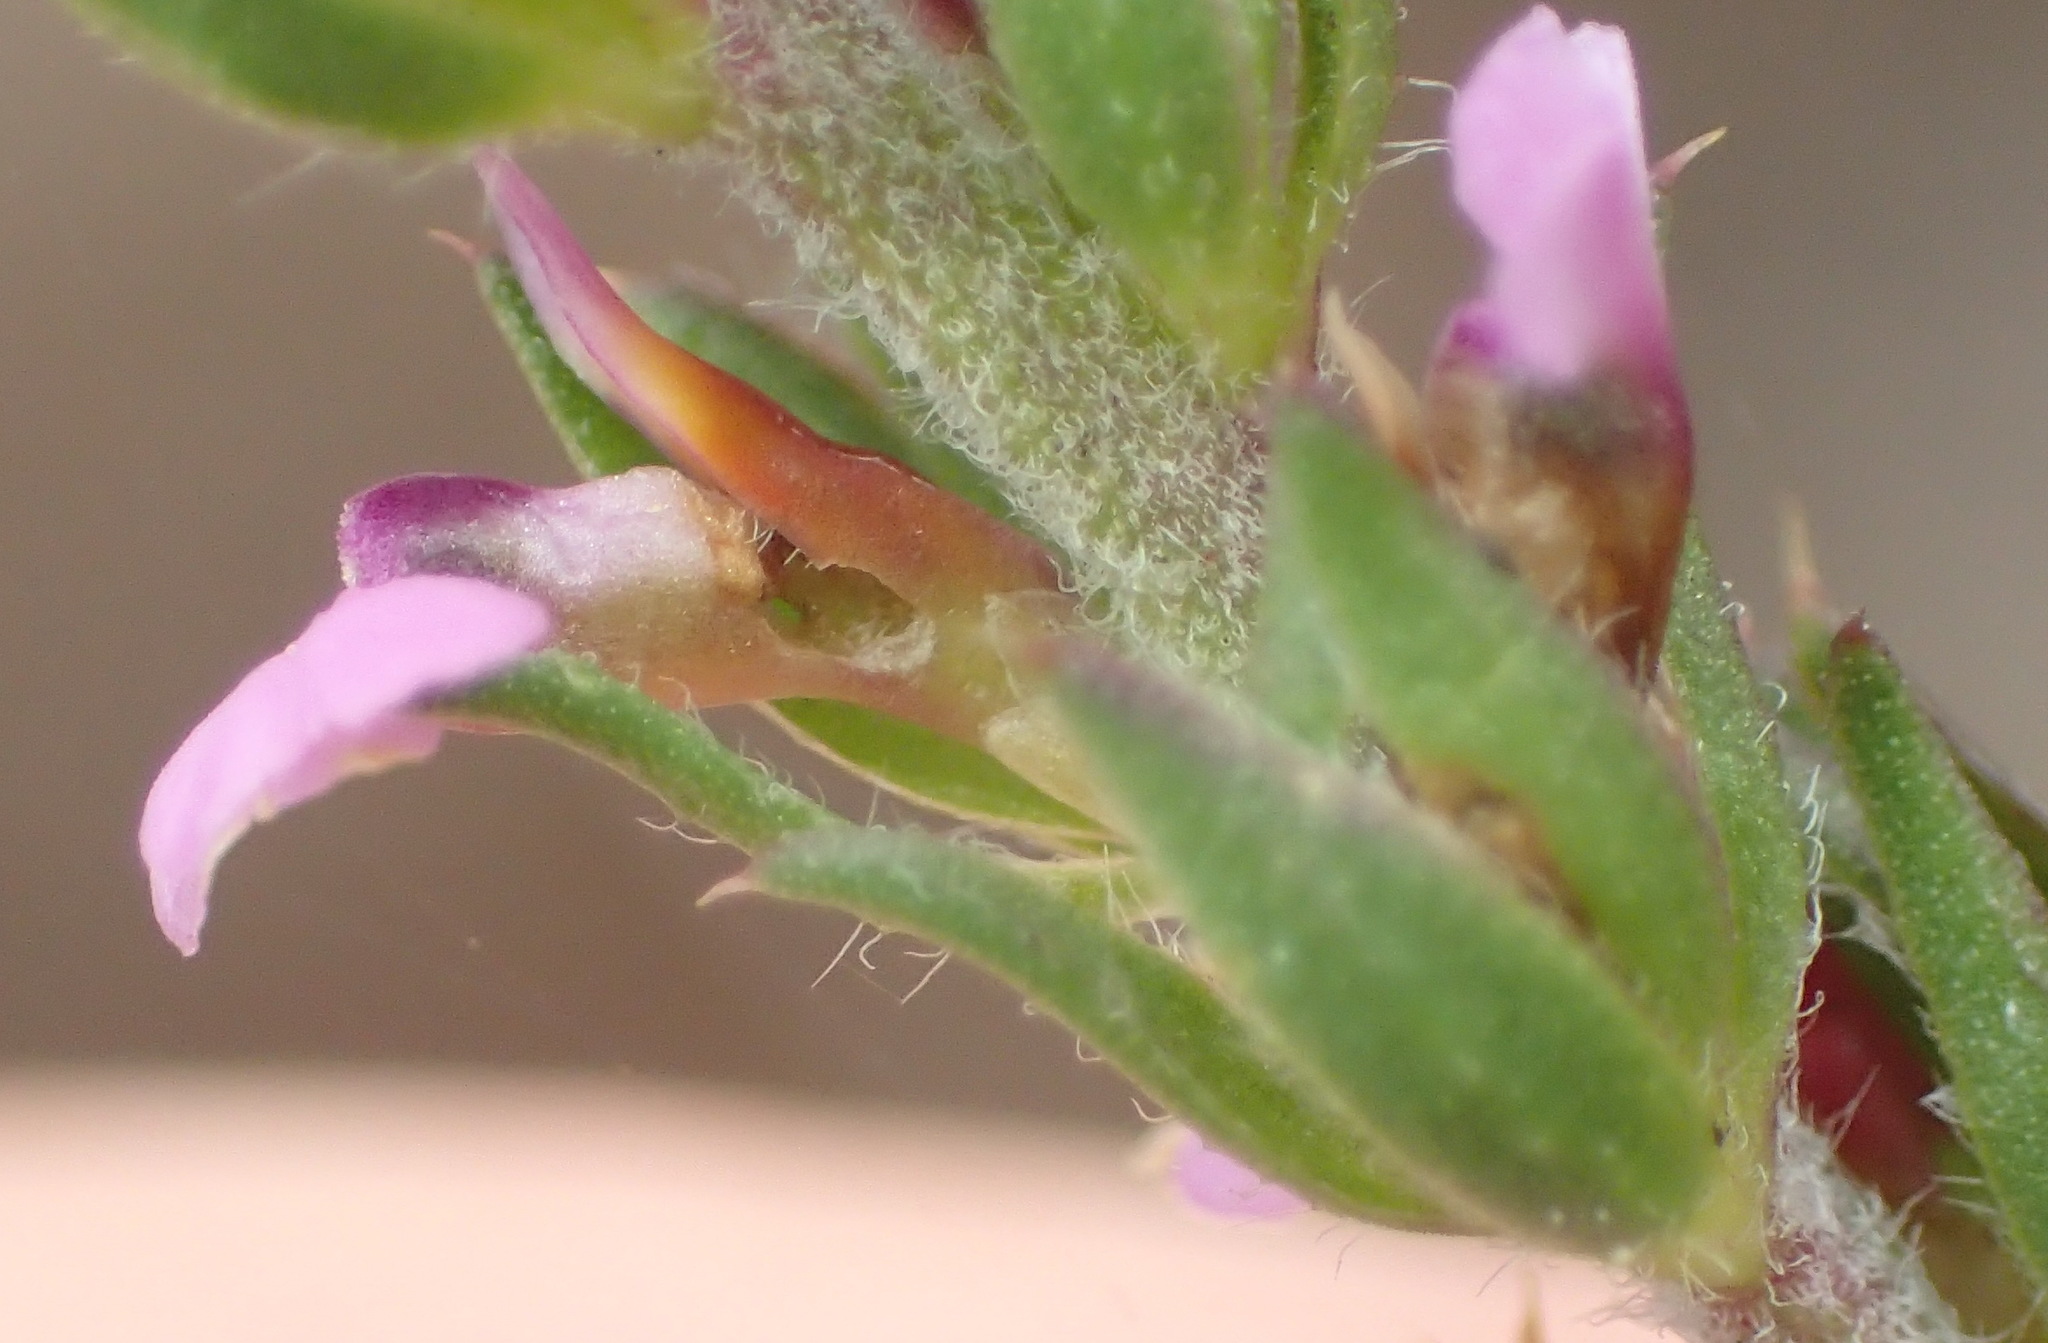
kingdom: Plantae
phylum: Tracheophyta
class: Magnoliopsida
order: Fabales
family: Polygalaceae
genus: Muraltia
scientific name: Muraltia squarrosa
